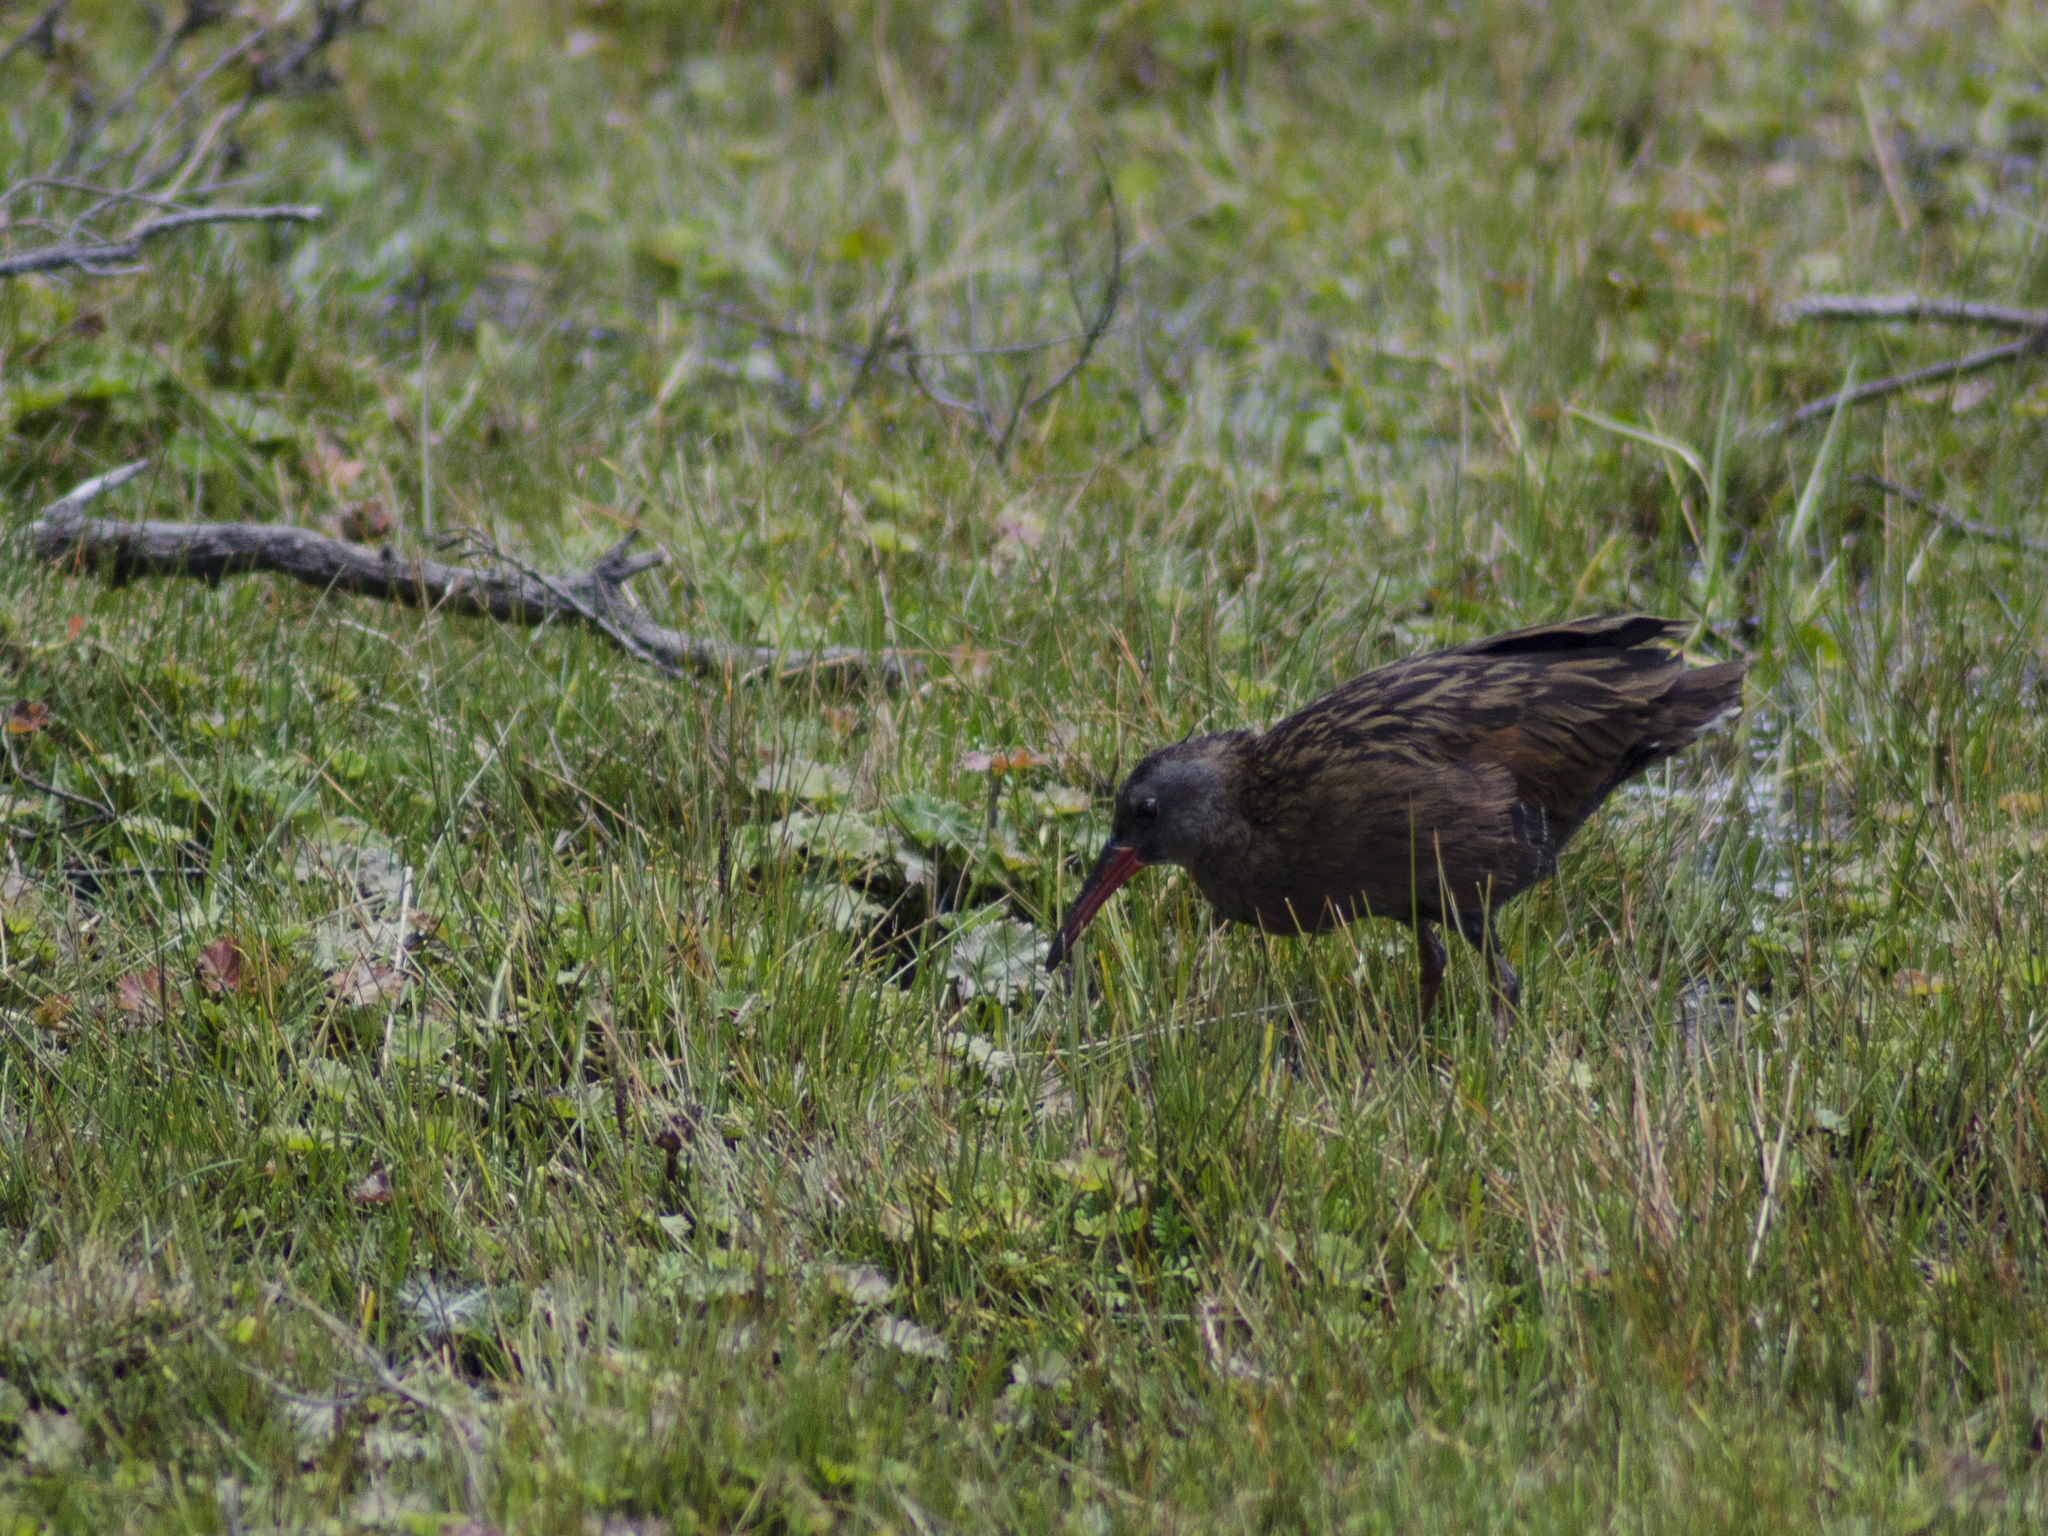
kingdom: Animalia
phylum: Chordata
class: Aves
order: Gruiformes
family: Rallidae
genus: Rallus
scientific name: Rallus limicola
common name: Virginia rail
